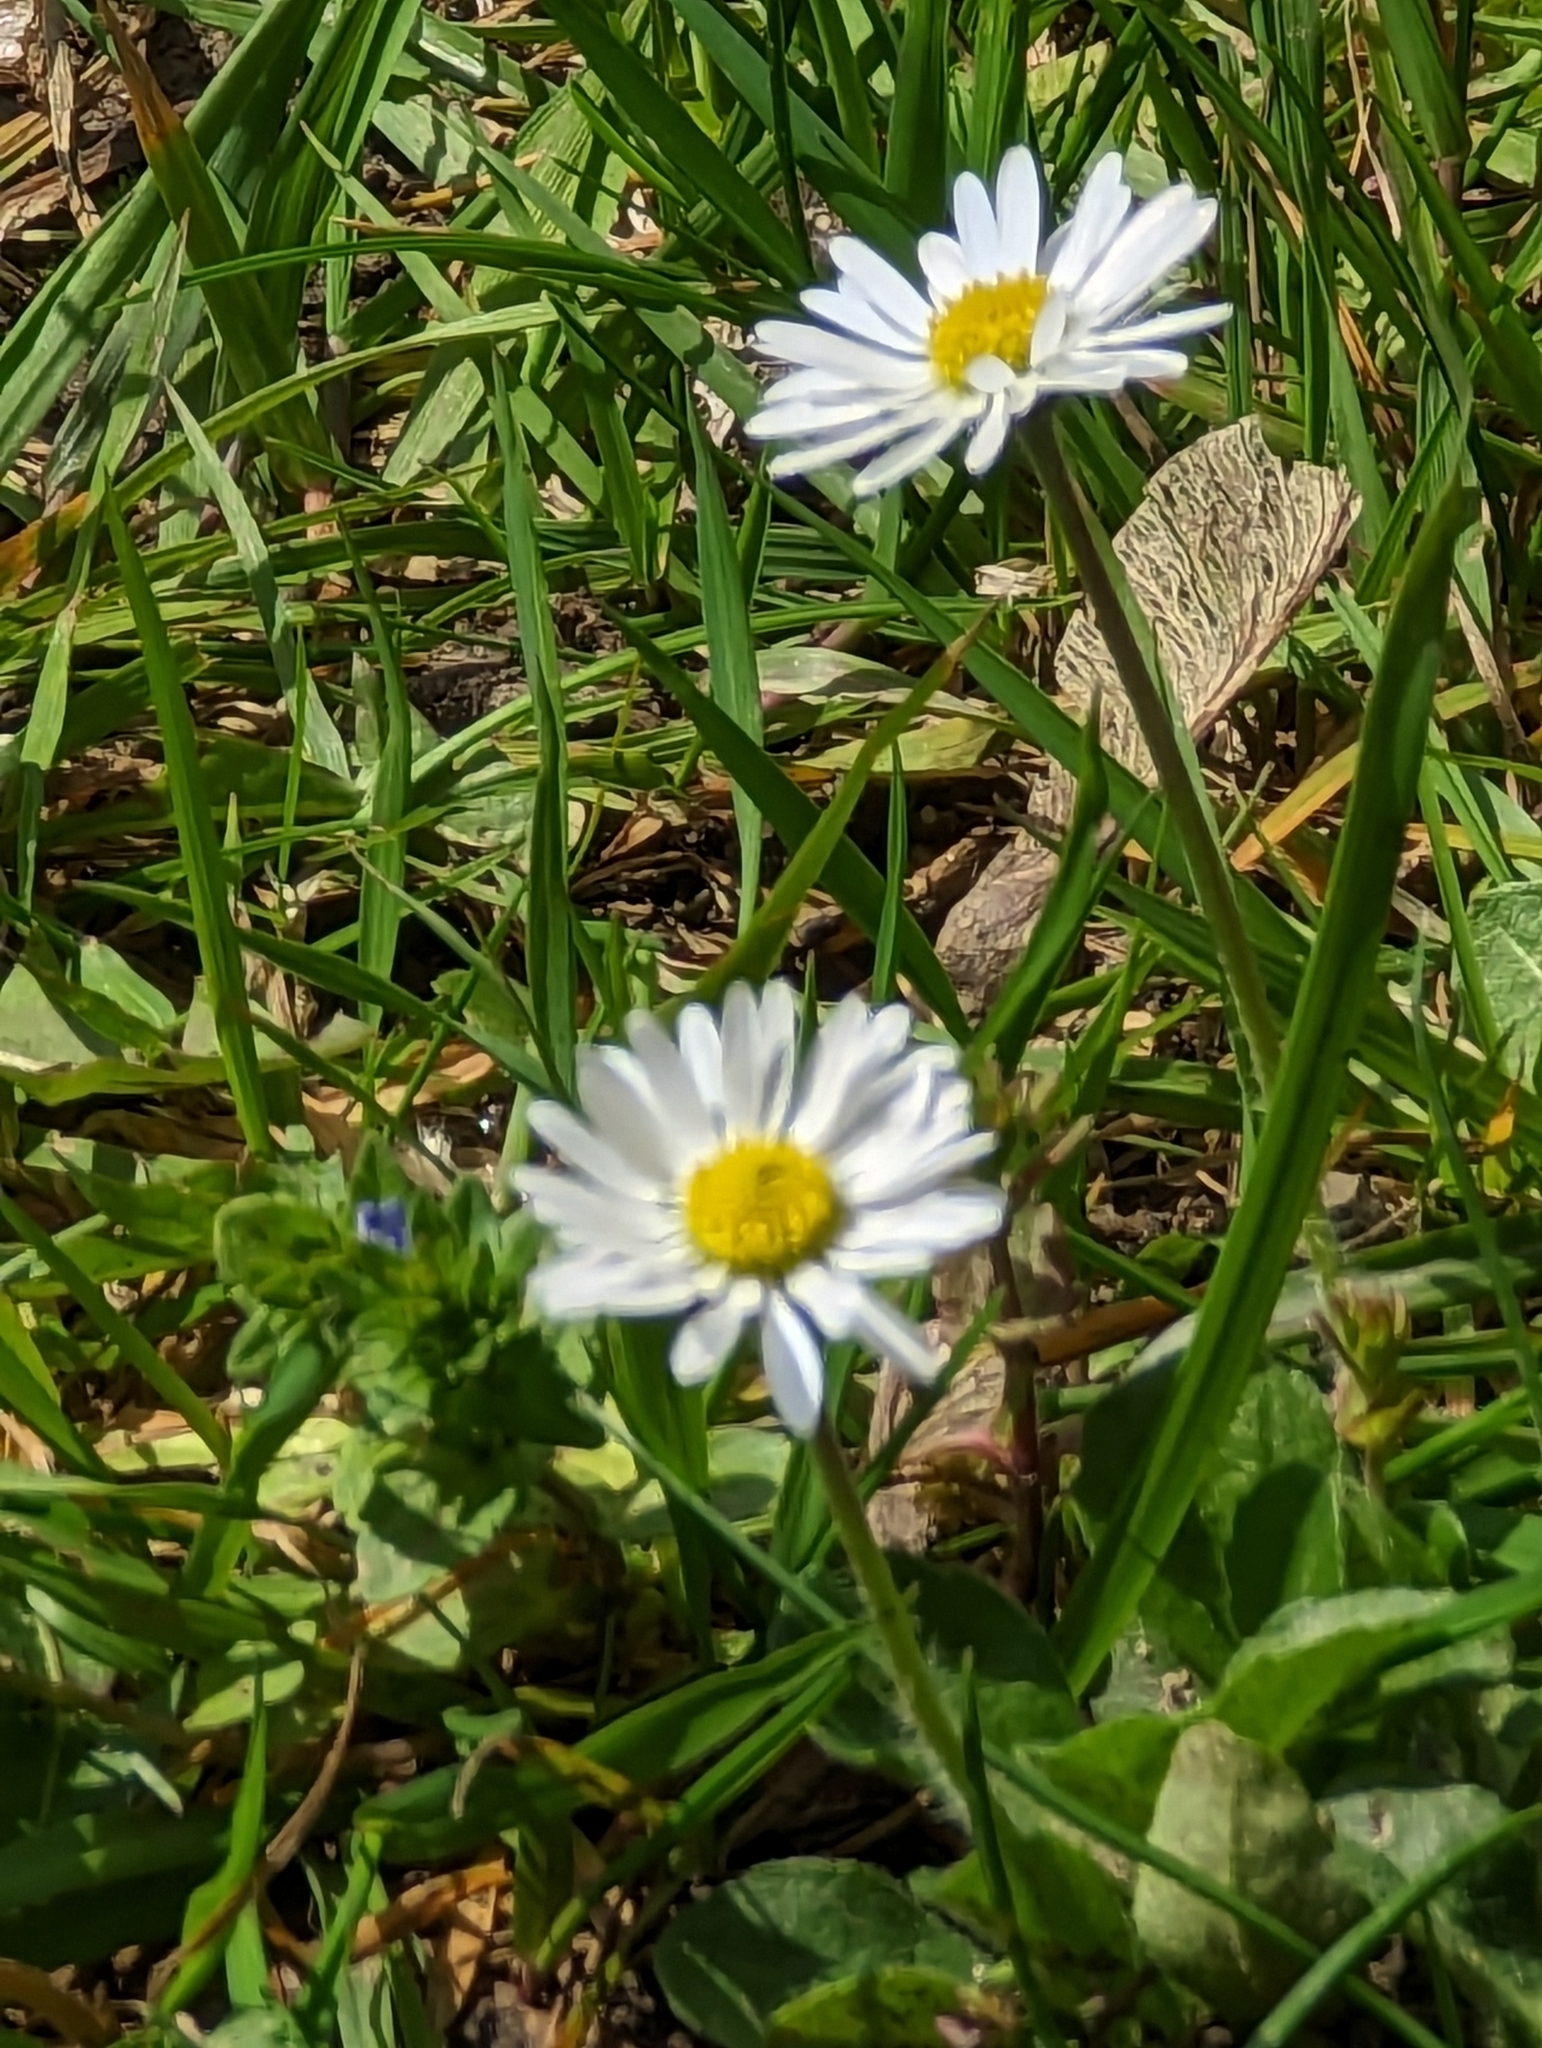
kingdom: Plantae
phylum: Tracheophyta
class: Magnoliopsida
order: Asterales
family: Asteraceae
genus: Bellis
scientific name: Bellis perennis
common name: Lawndaisy
